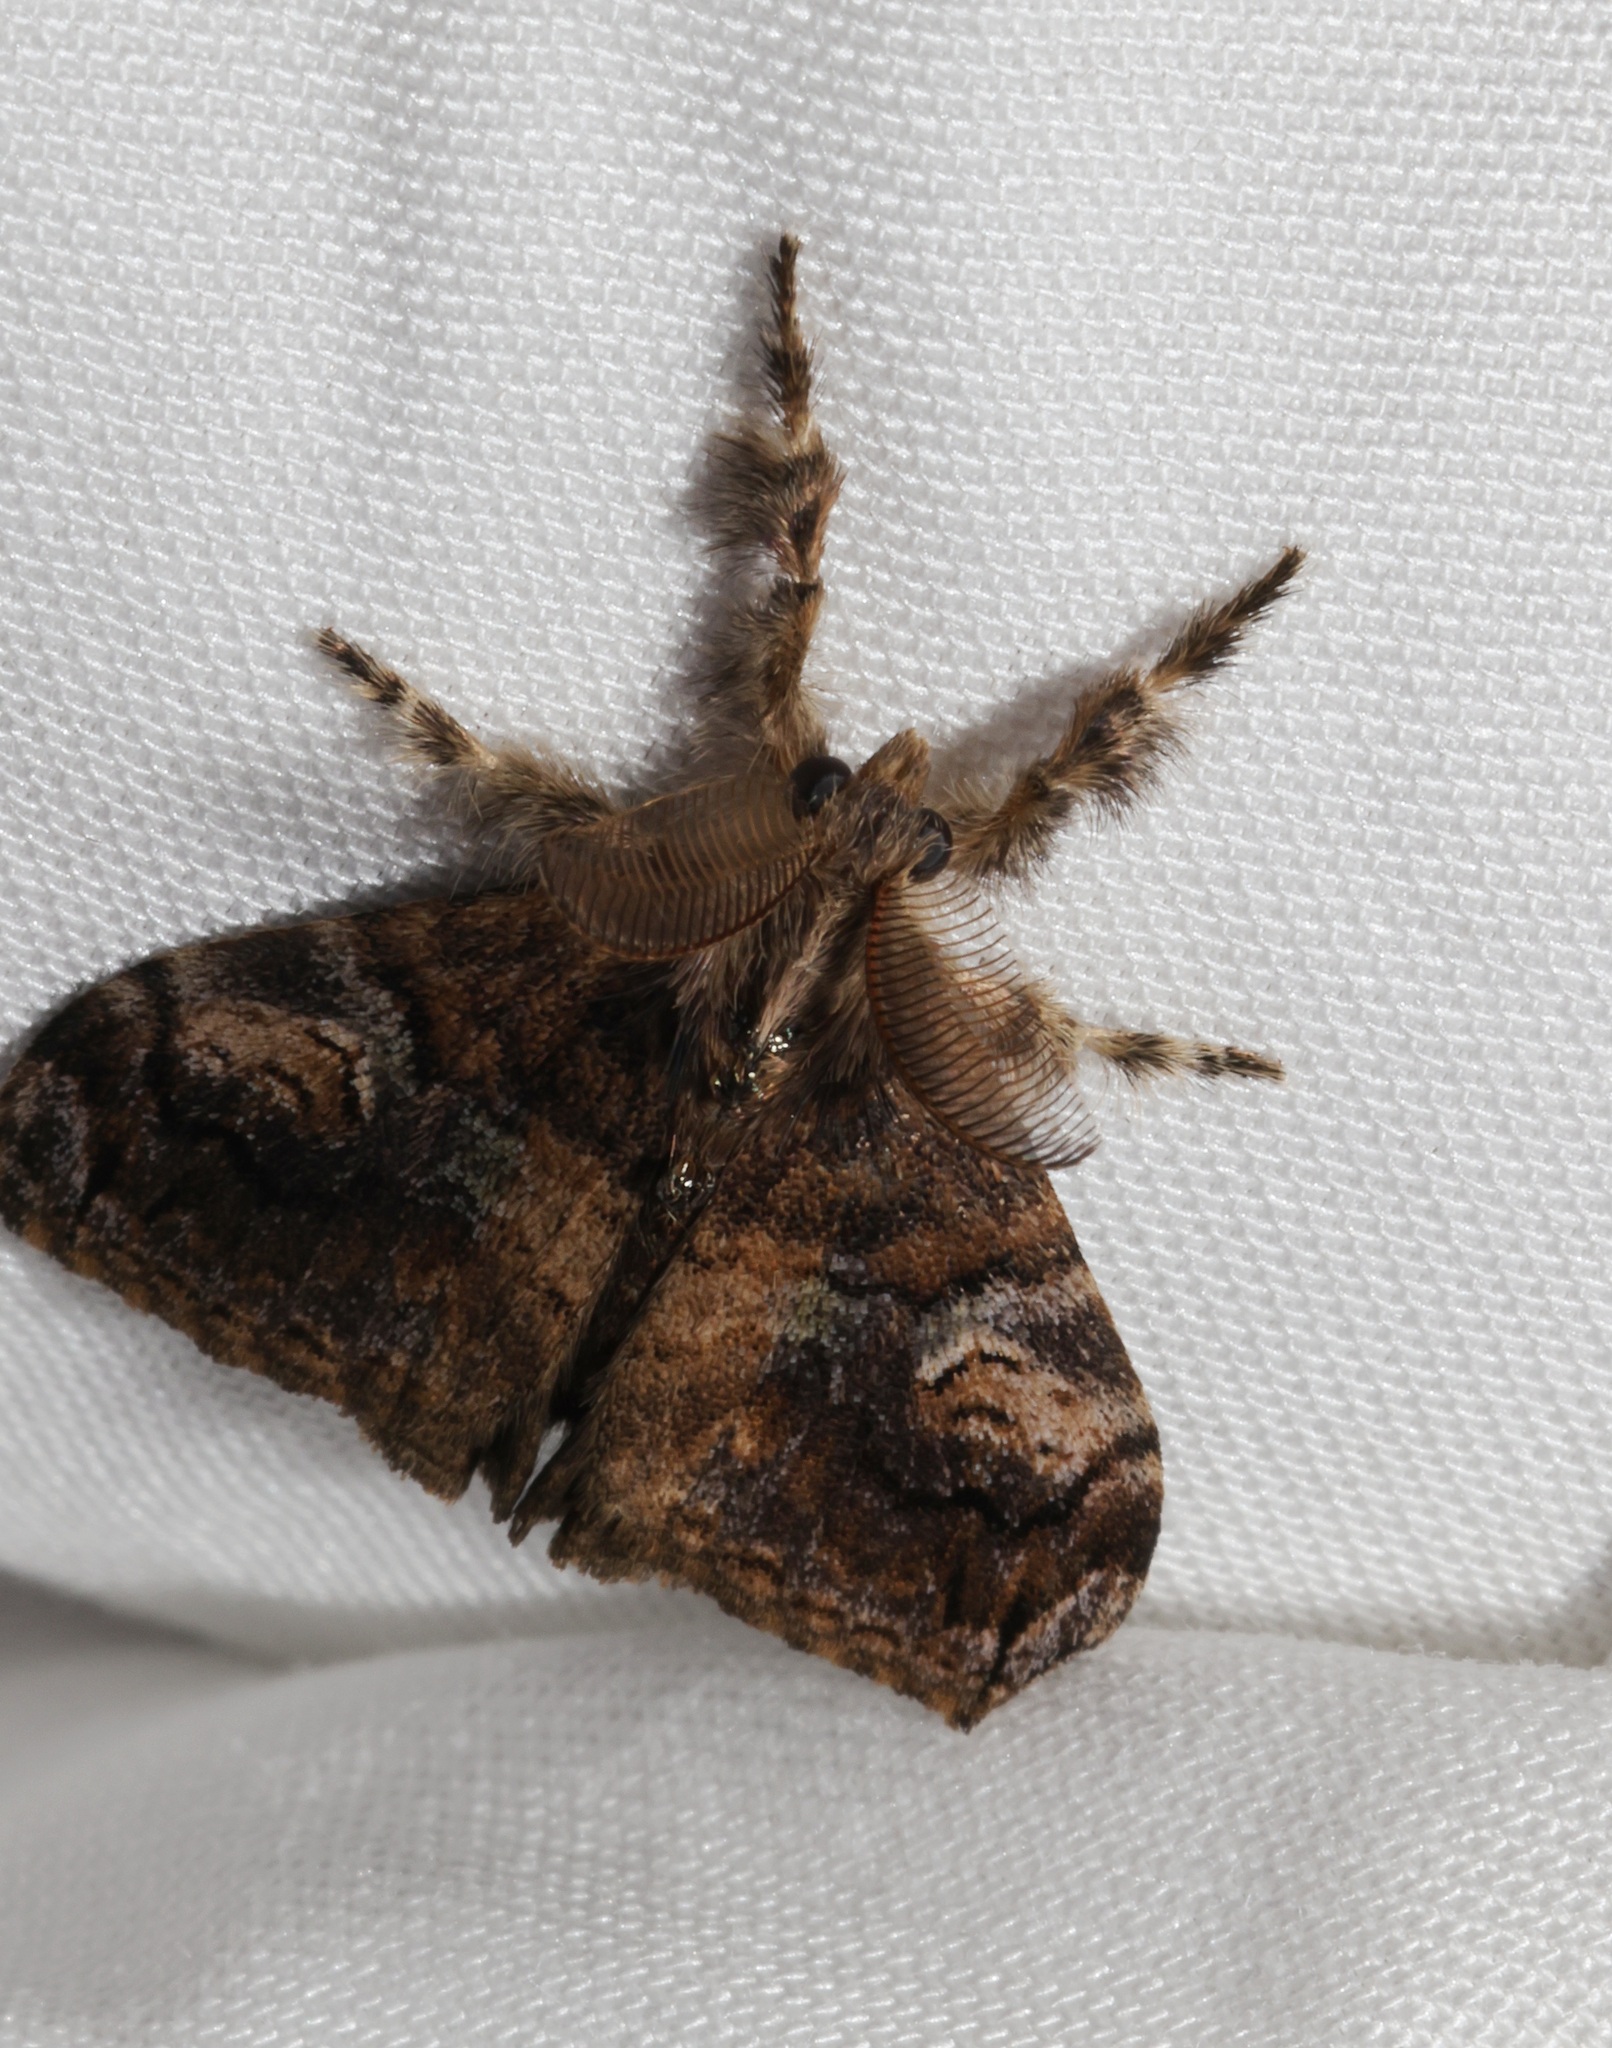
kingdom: Animalia
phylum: Arthropoda
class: Insecta
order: Lepidoptera
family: Erebidae
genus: Orgyia
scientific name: Orgyia postica
